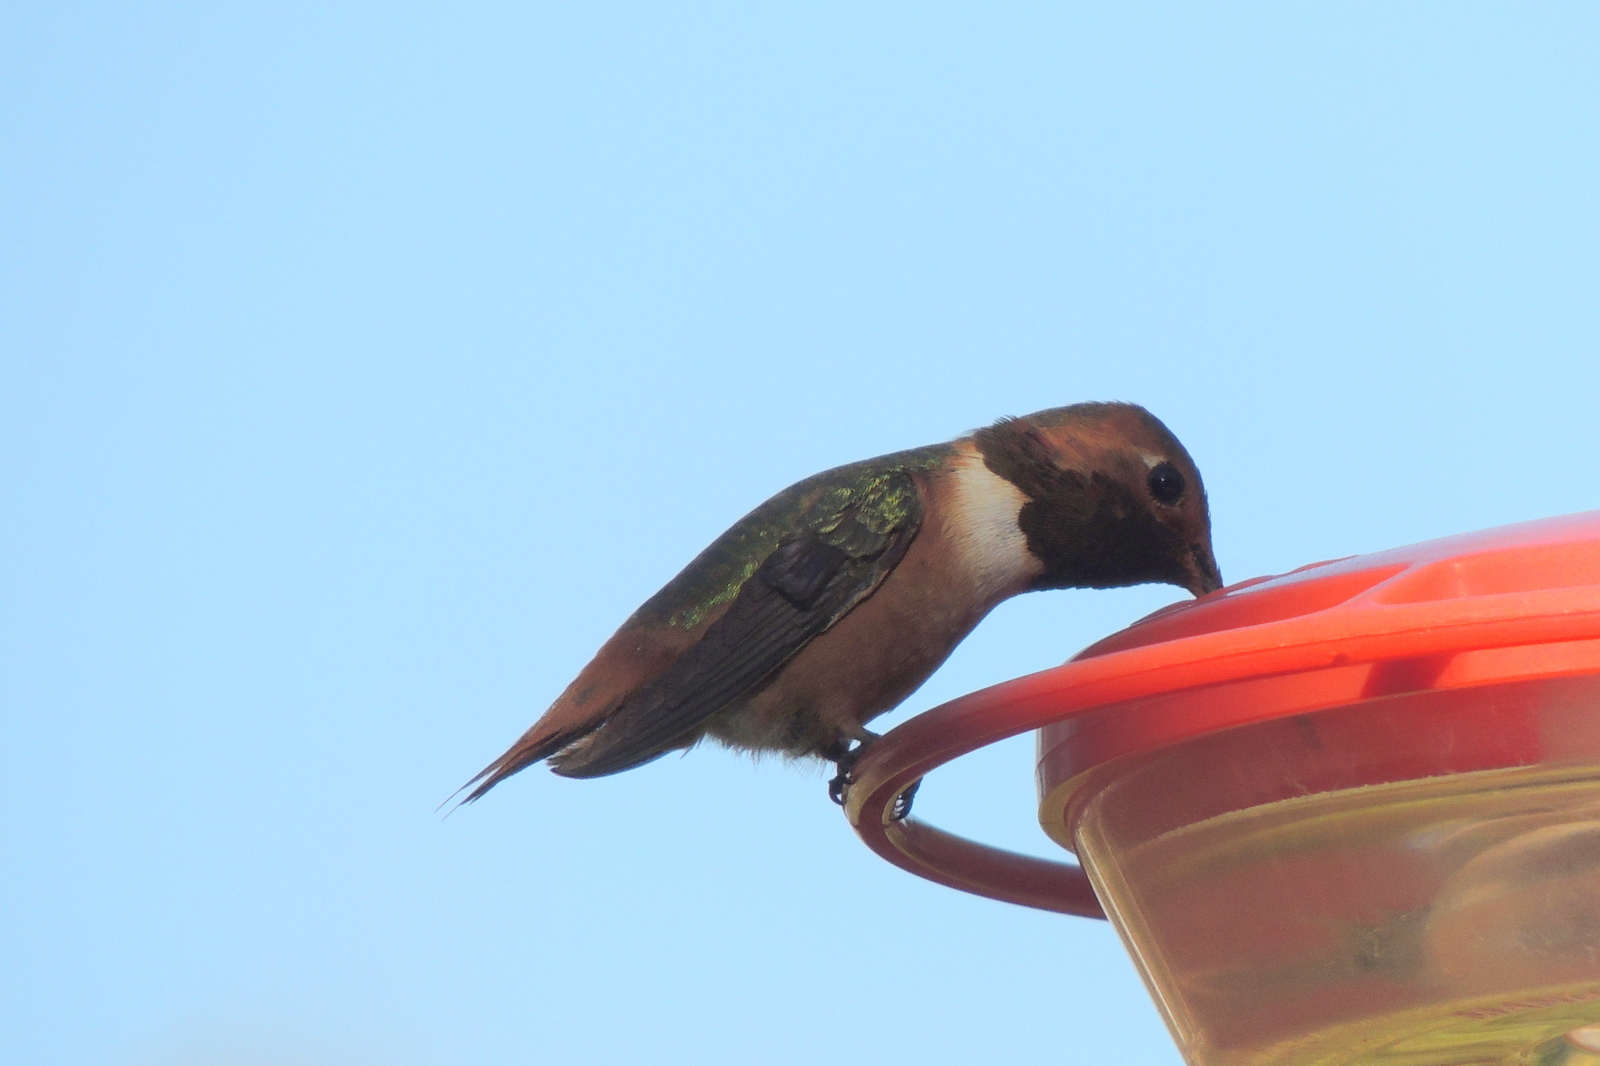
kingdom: Animalia
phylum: Chordata
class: Aves
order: Apodiformes
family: Trochilidae
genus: Selasphorus
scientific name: Selasphorus sasin
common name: Allen's hummingbird
